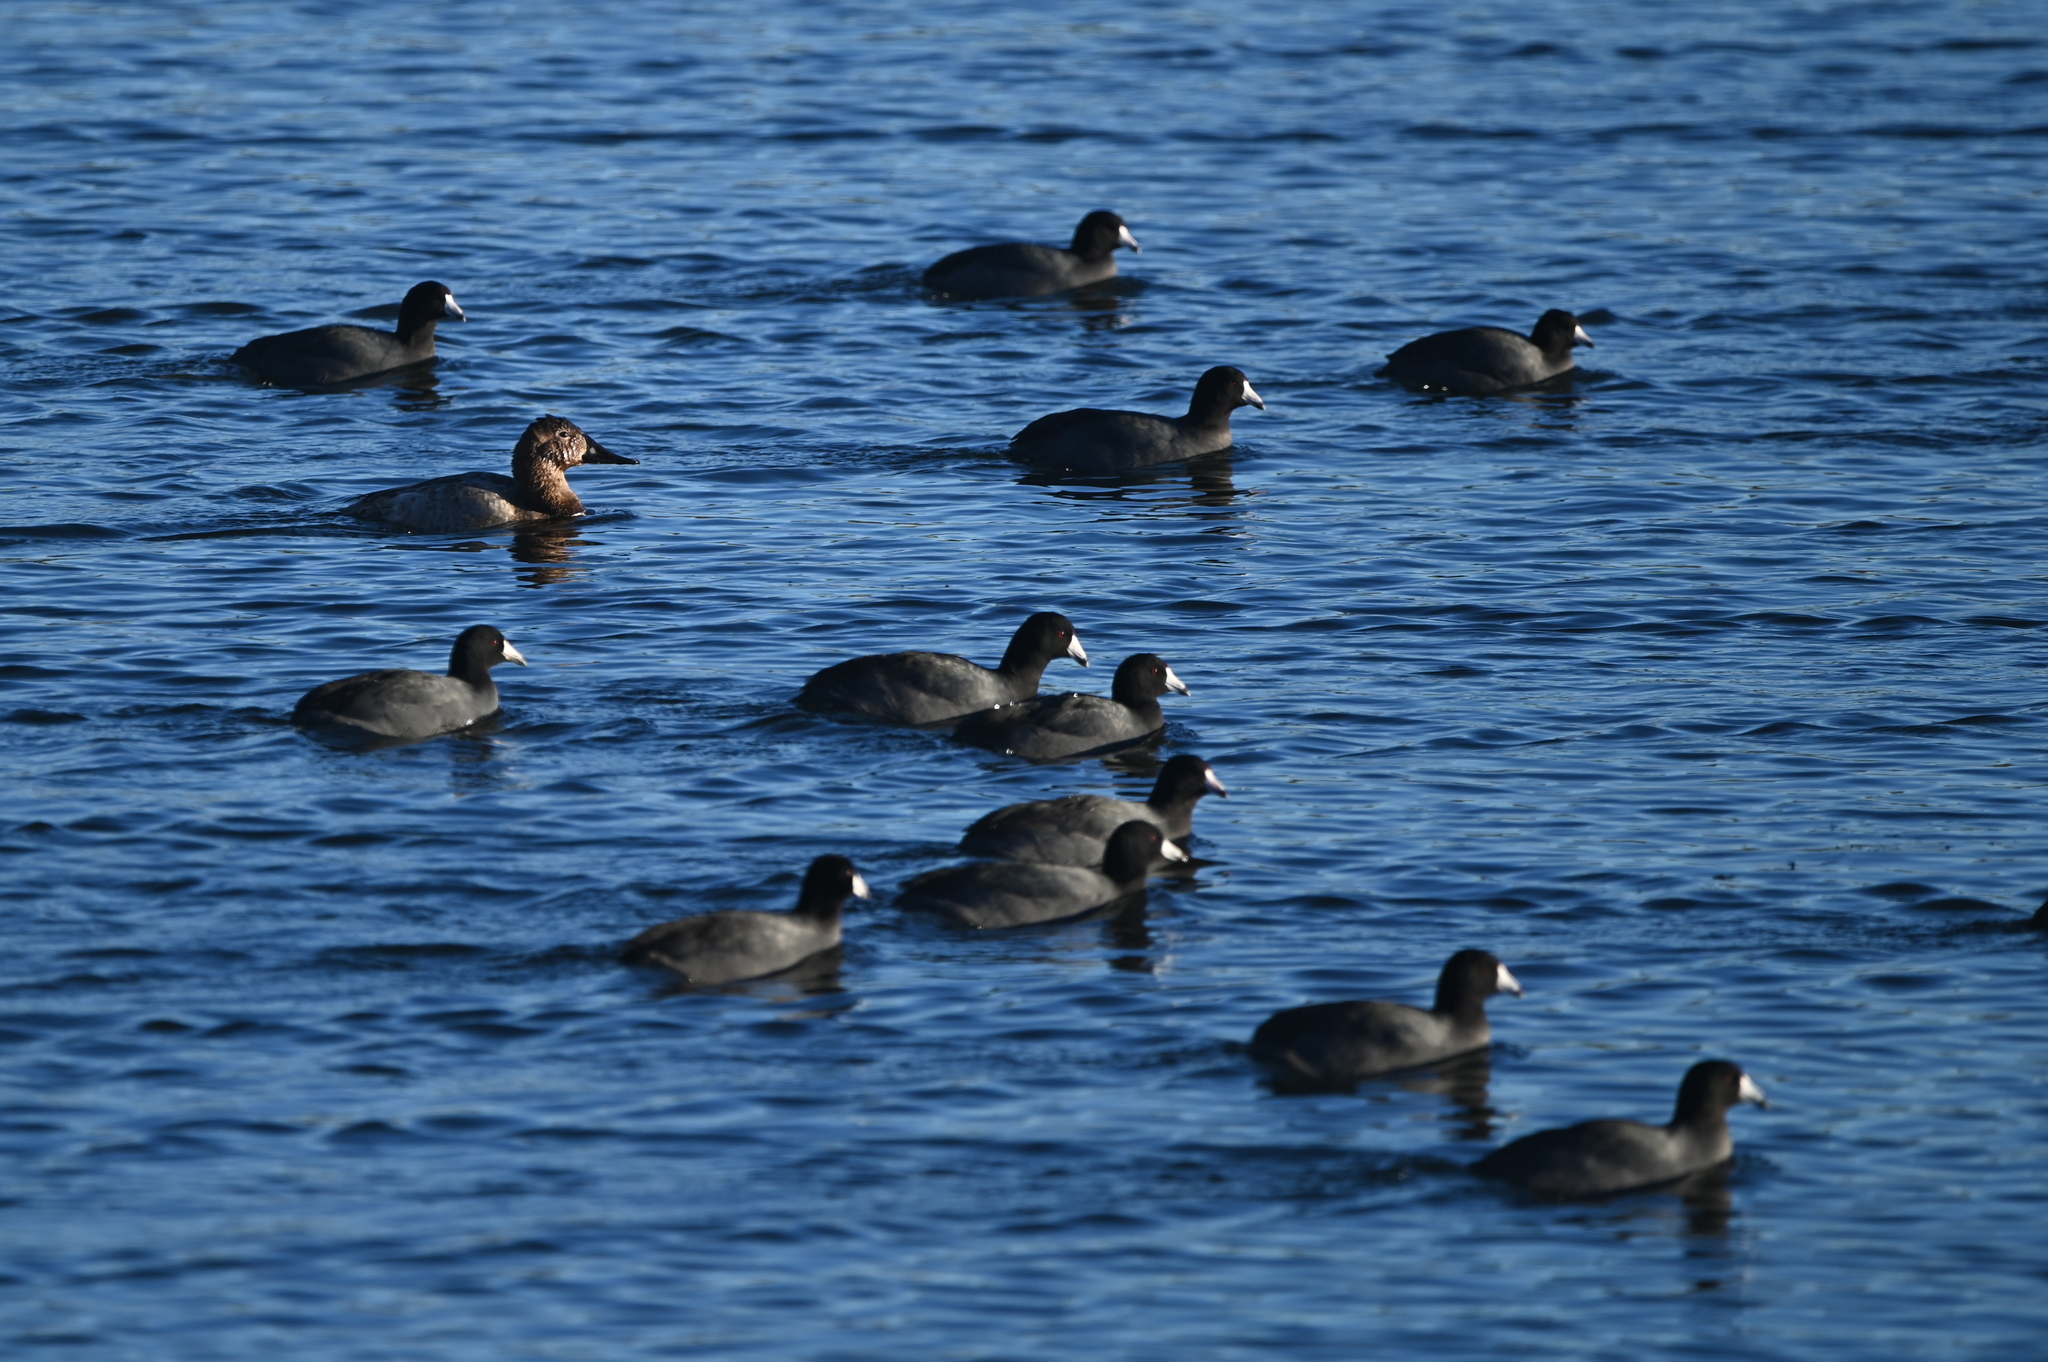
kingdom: Animalia
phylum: Chordata
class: Aves
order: Anseriformes
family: Anatidae
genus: Aythya
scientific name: Aythya valisineria
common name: Canvasback
